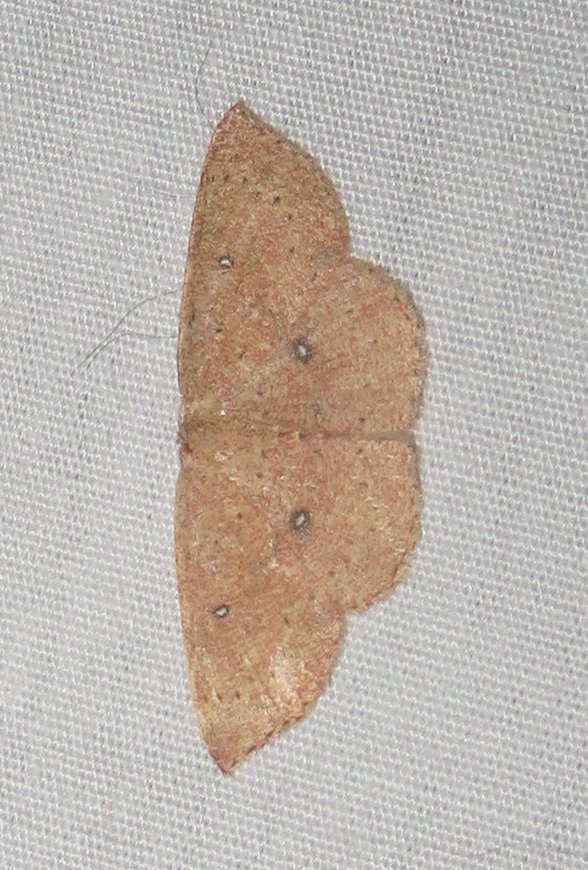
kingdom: Animalia
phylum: Arthropoda
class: Insecta
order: Lepidoptera
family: Geometridae
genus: Cyclophora
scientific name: Cyclophora packardi
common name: Packard's wave
